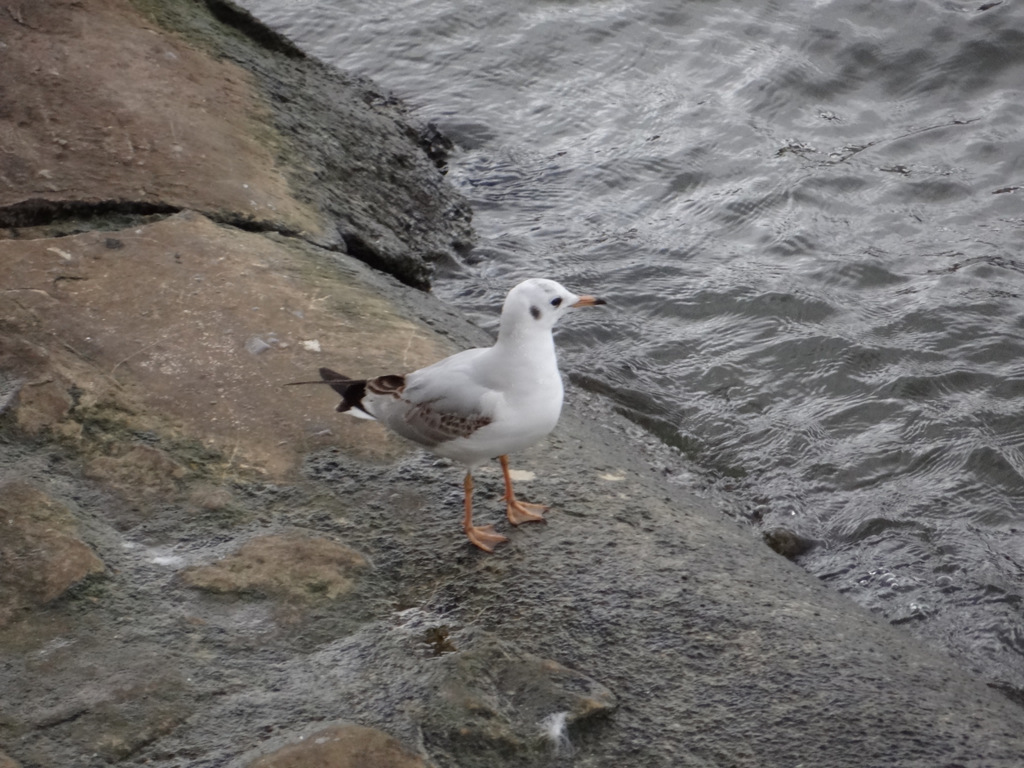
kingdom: Animalia
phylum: Chordata
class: Aves
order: Charadriiformes
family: Laridae
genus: Chroicocephalus
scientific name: Chroicocephalus ridibundus
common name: Black-headed gull
